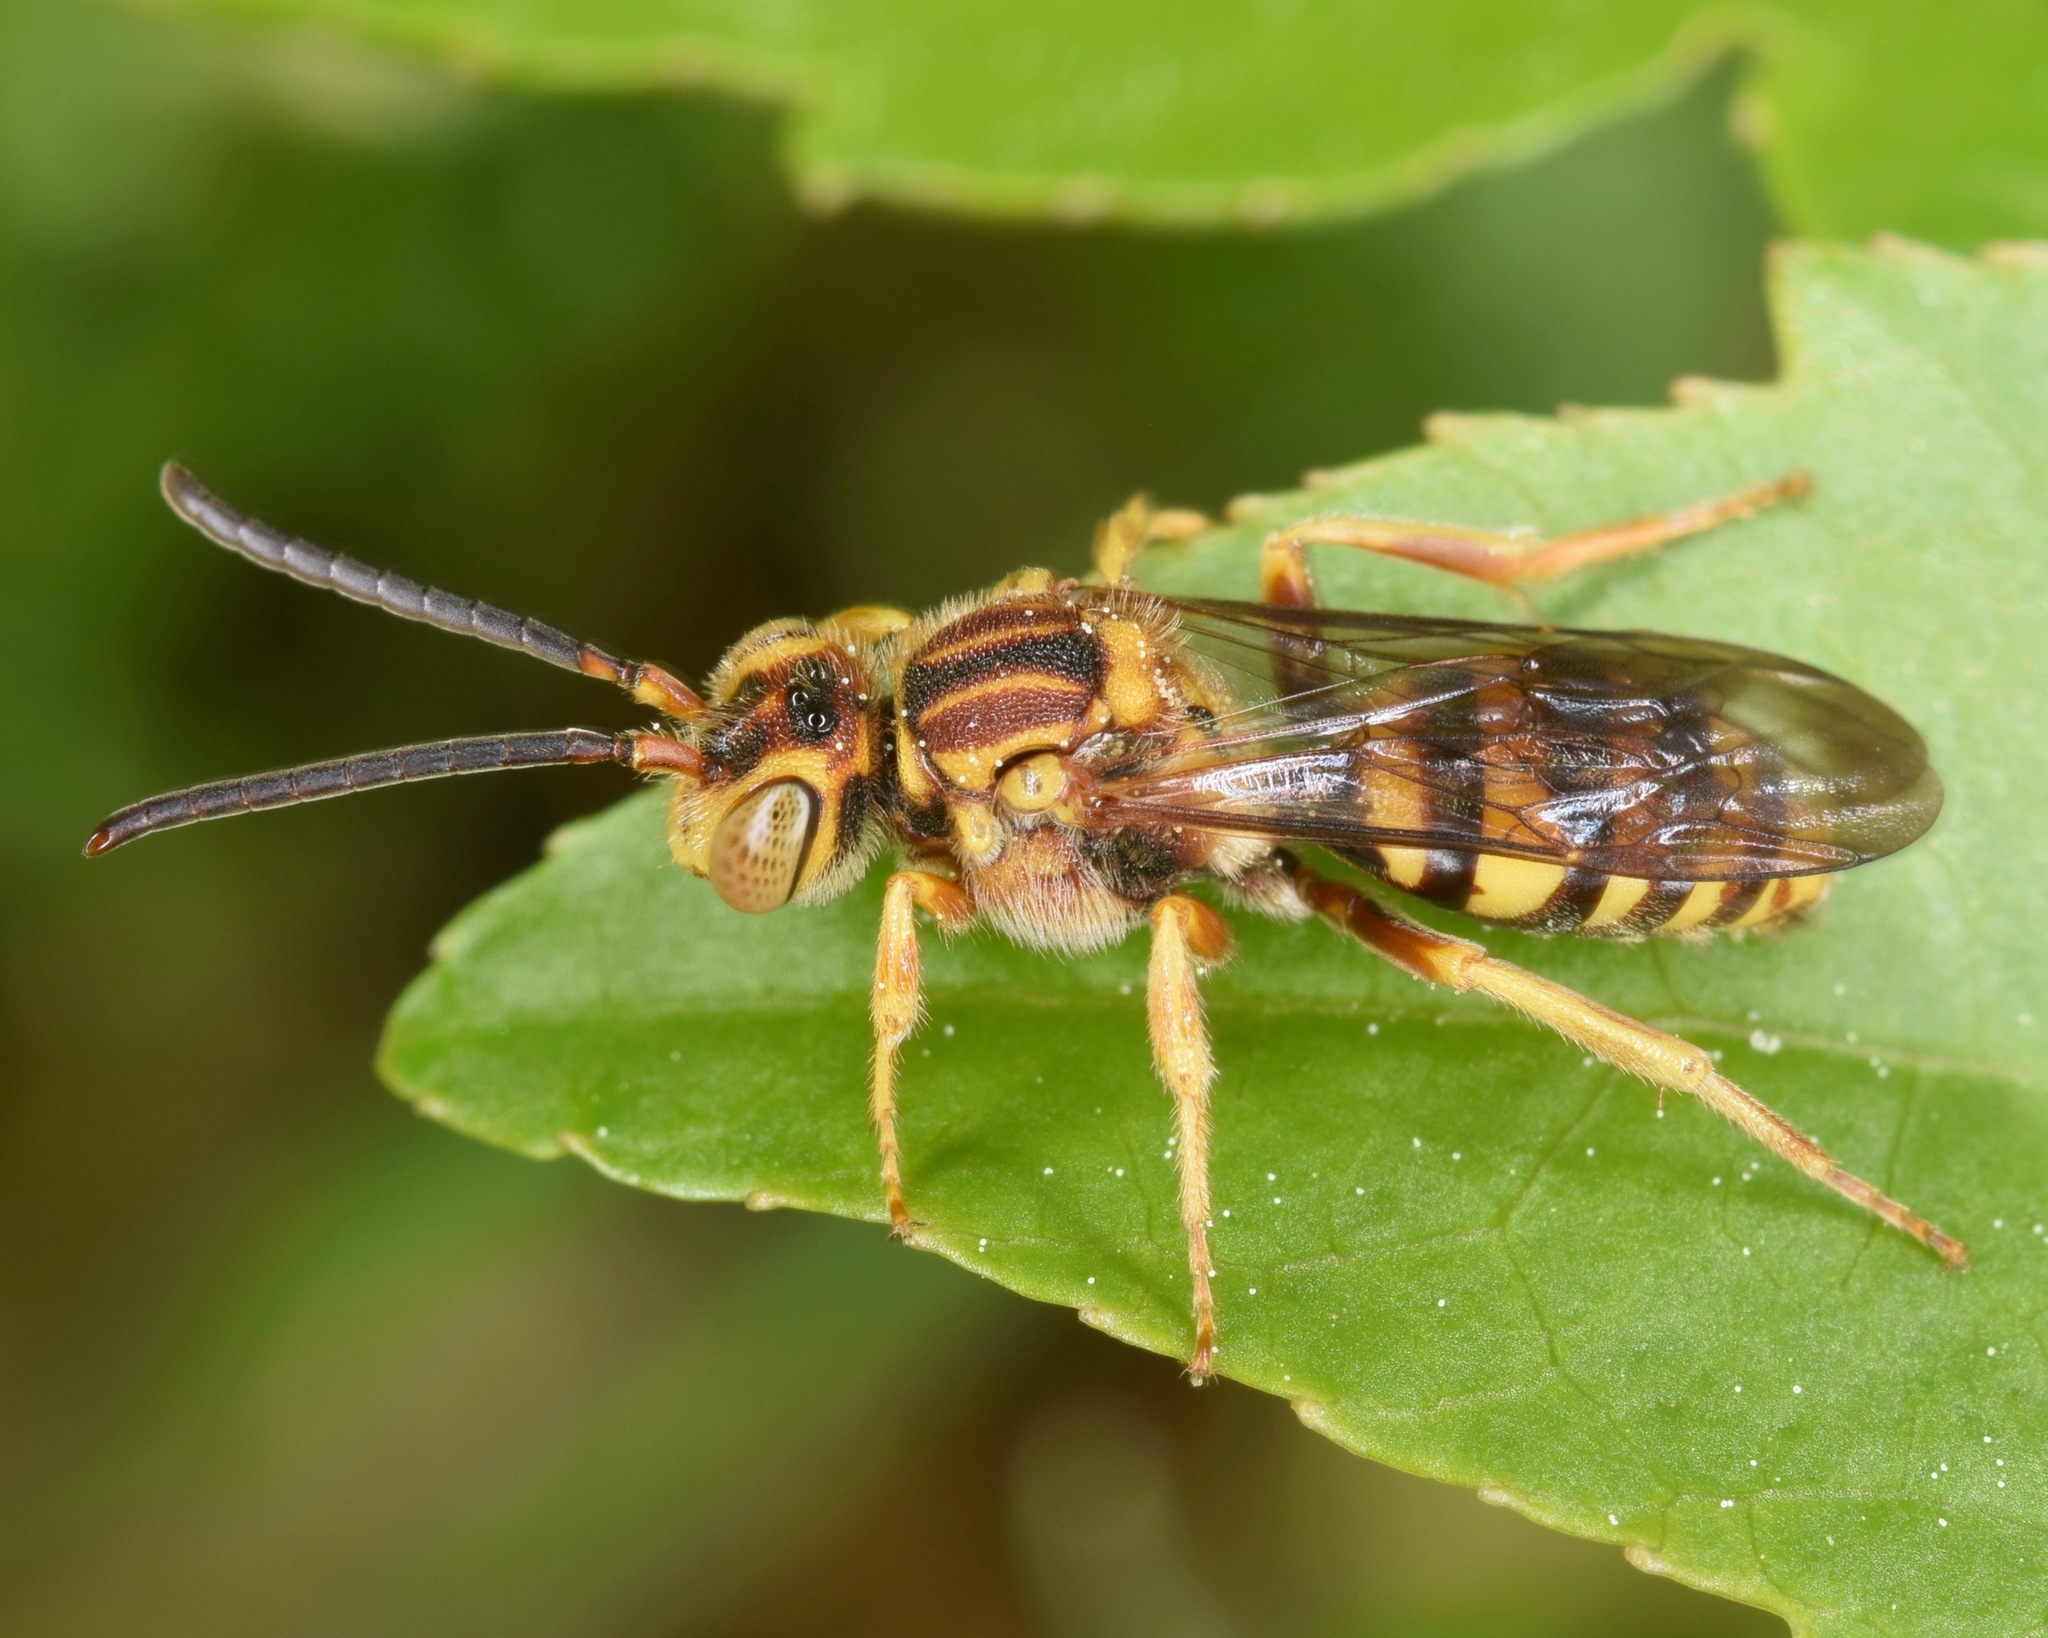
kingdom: Animalia
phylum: Arthropoda
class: Insecta
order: Hymenoptera
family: Apidae
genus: Nomada
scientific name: Nomada
